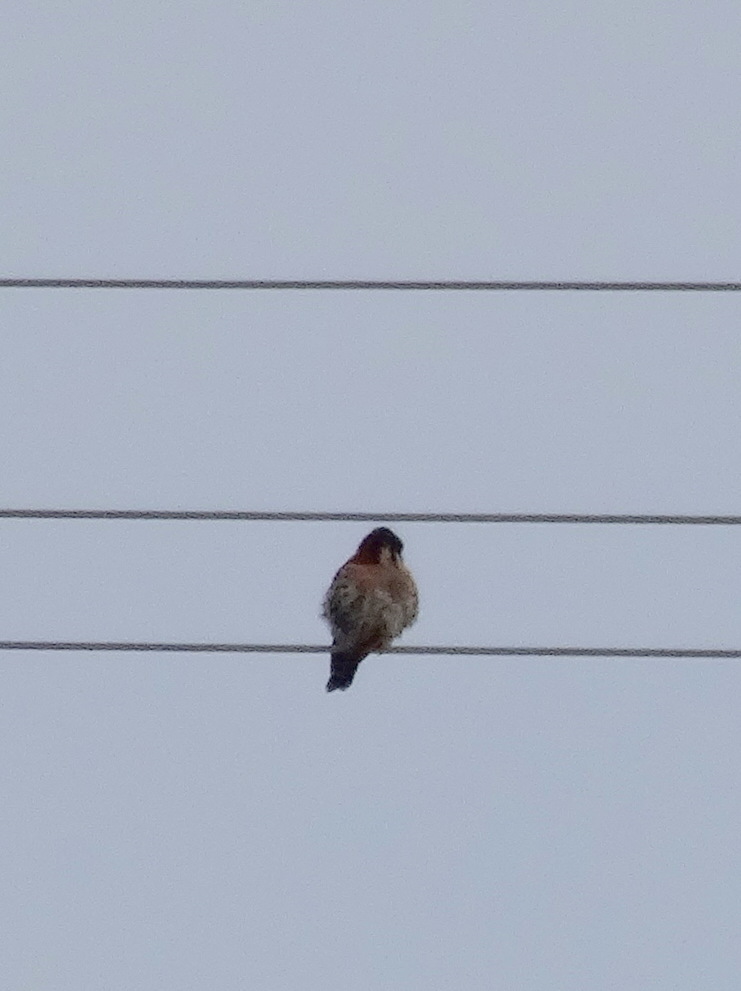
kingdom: Animalia
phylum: Chordata
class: Aves
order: Falconiformes
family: Falconidae
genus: Falco
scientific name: Falco sparverius
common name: American kestrel
